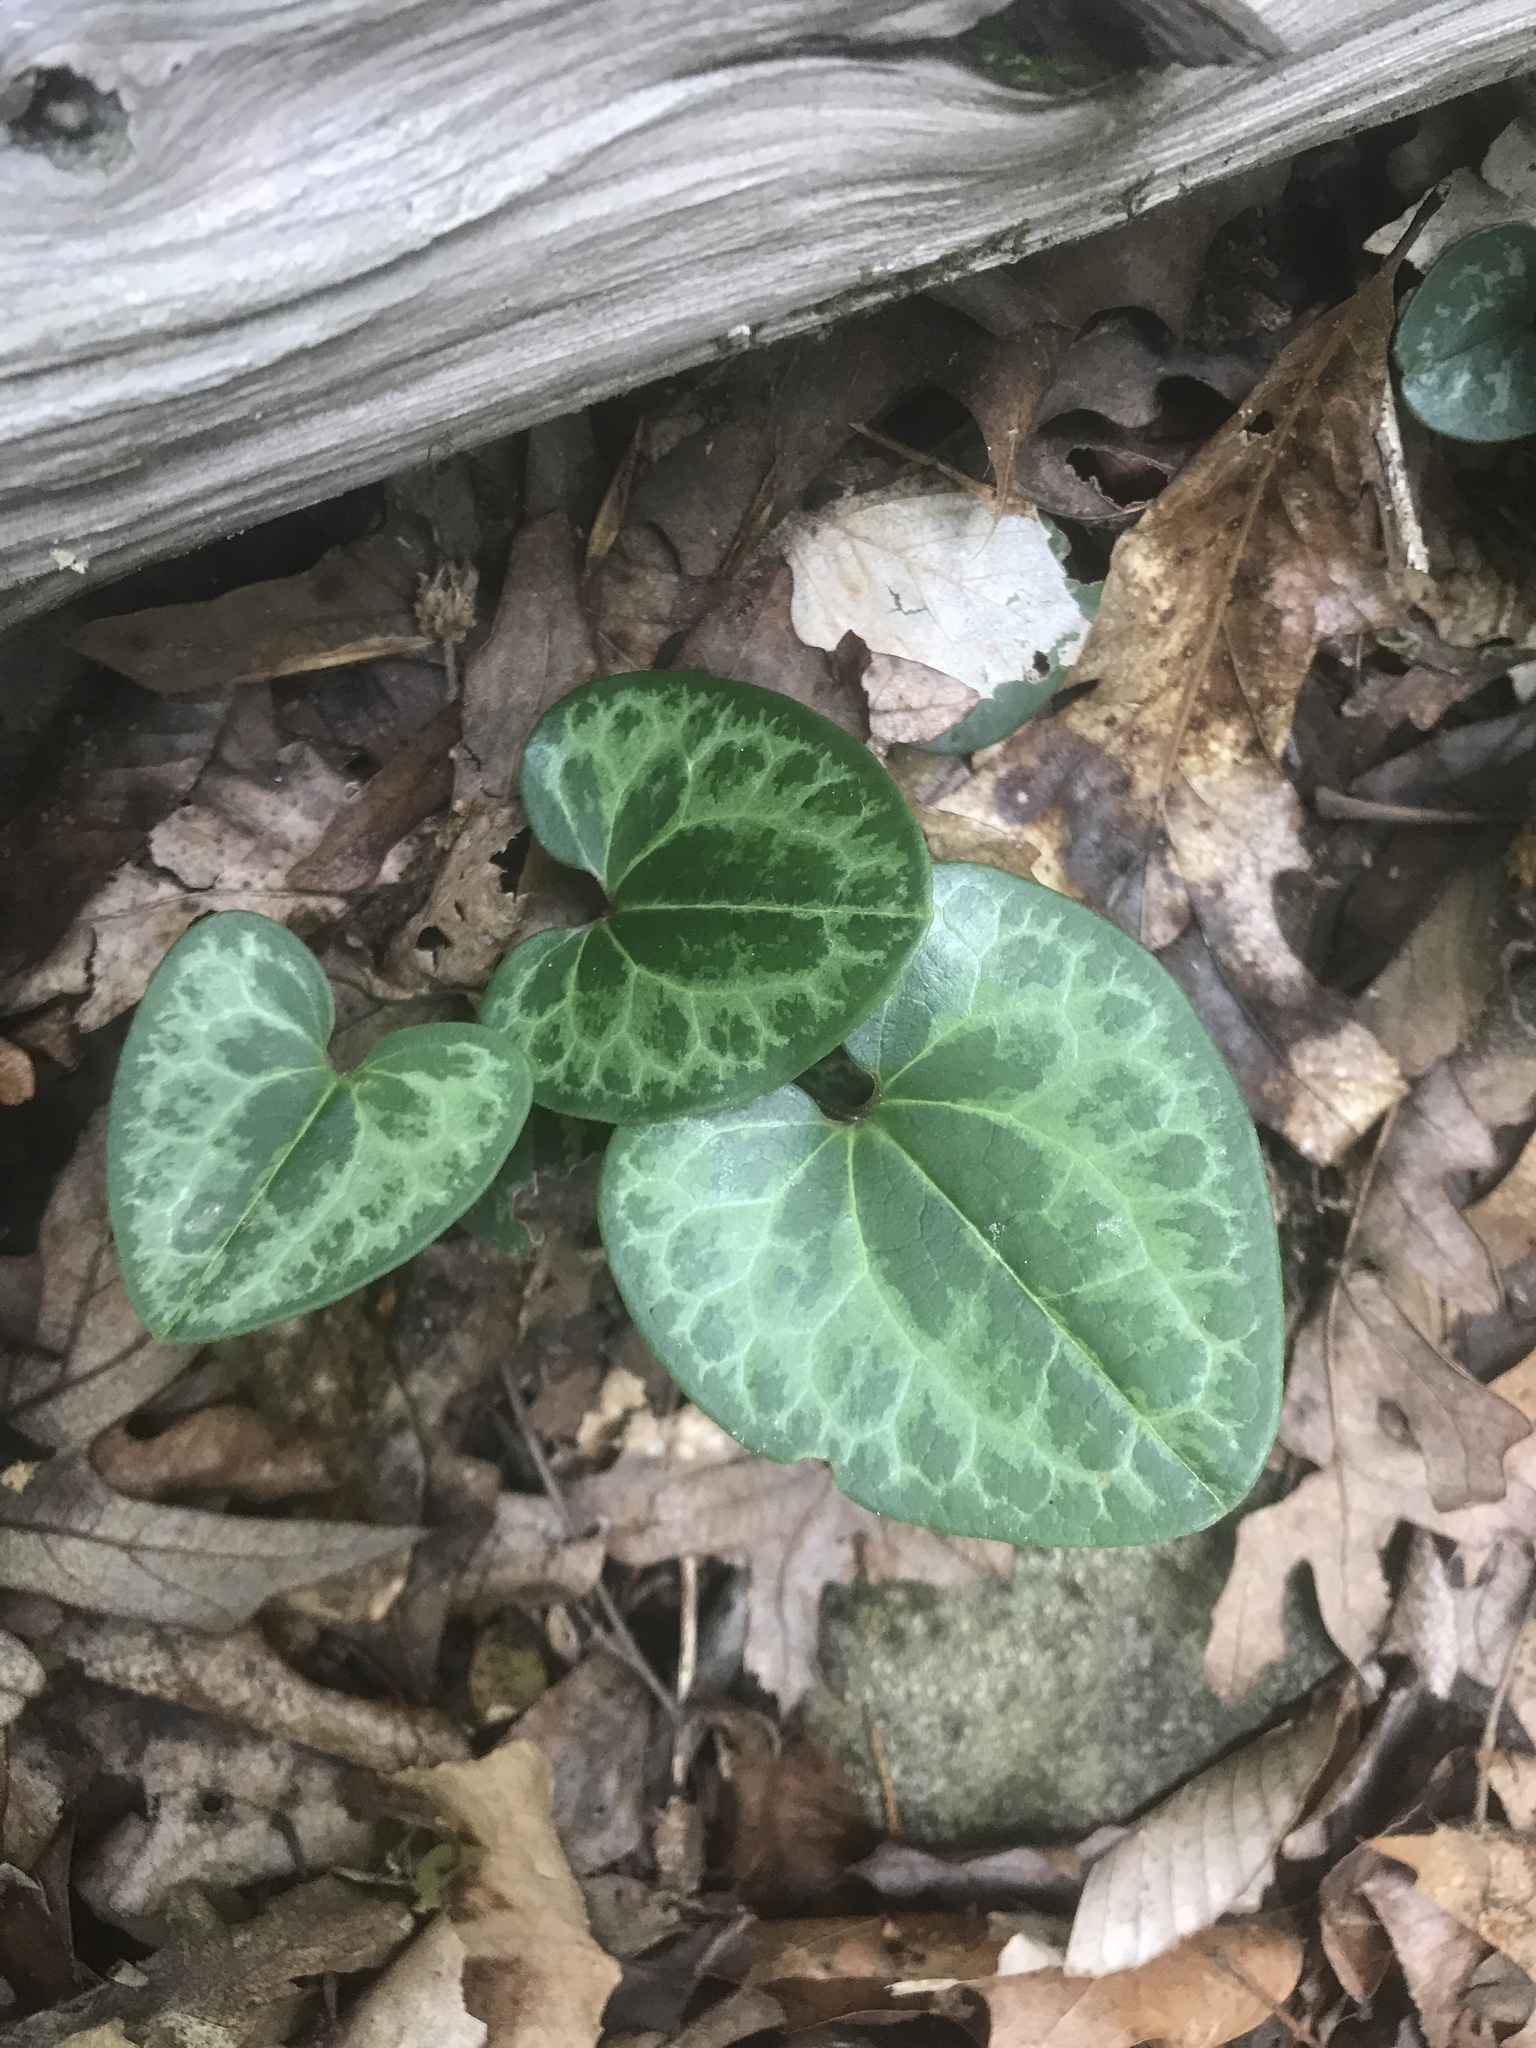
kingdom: Plantae
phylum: Tracheophyta
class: Magnoliopsida
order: Piperales
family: Aristolochiaceae
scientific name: Aristolochiaceae
